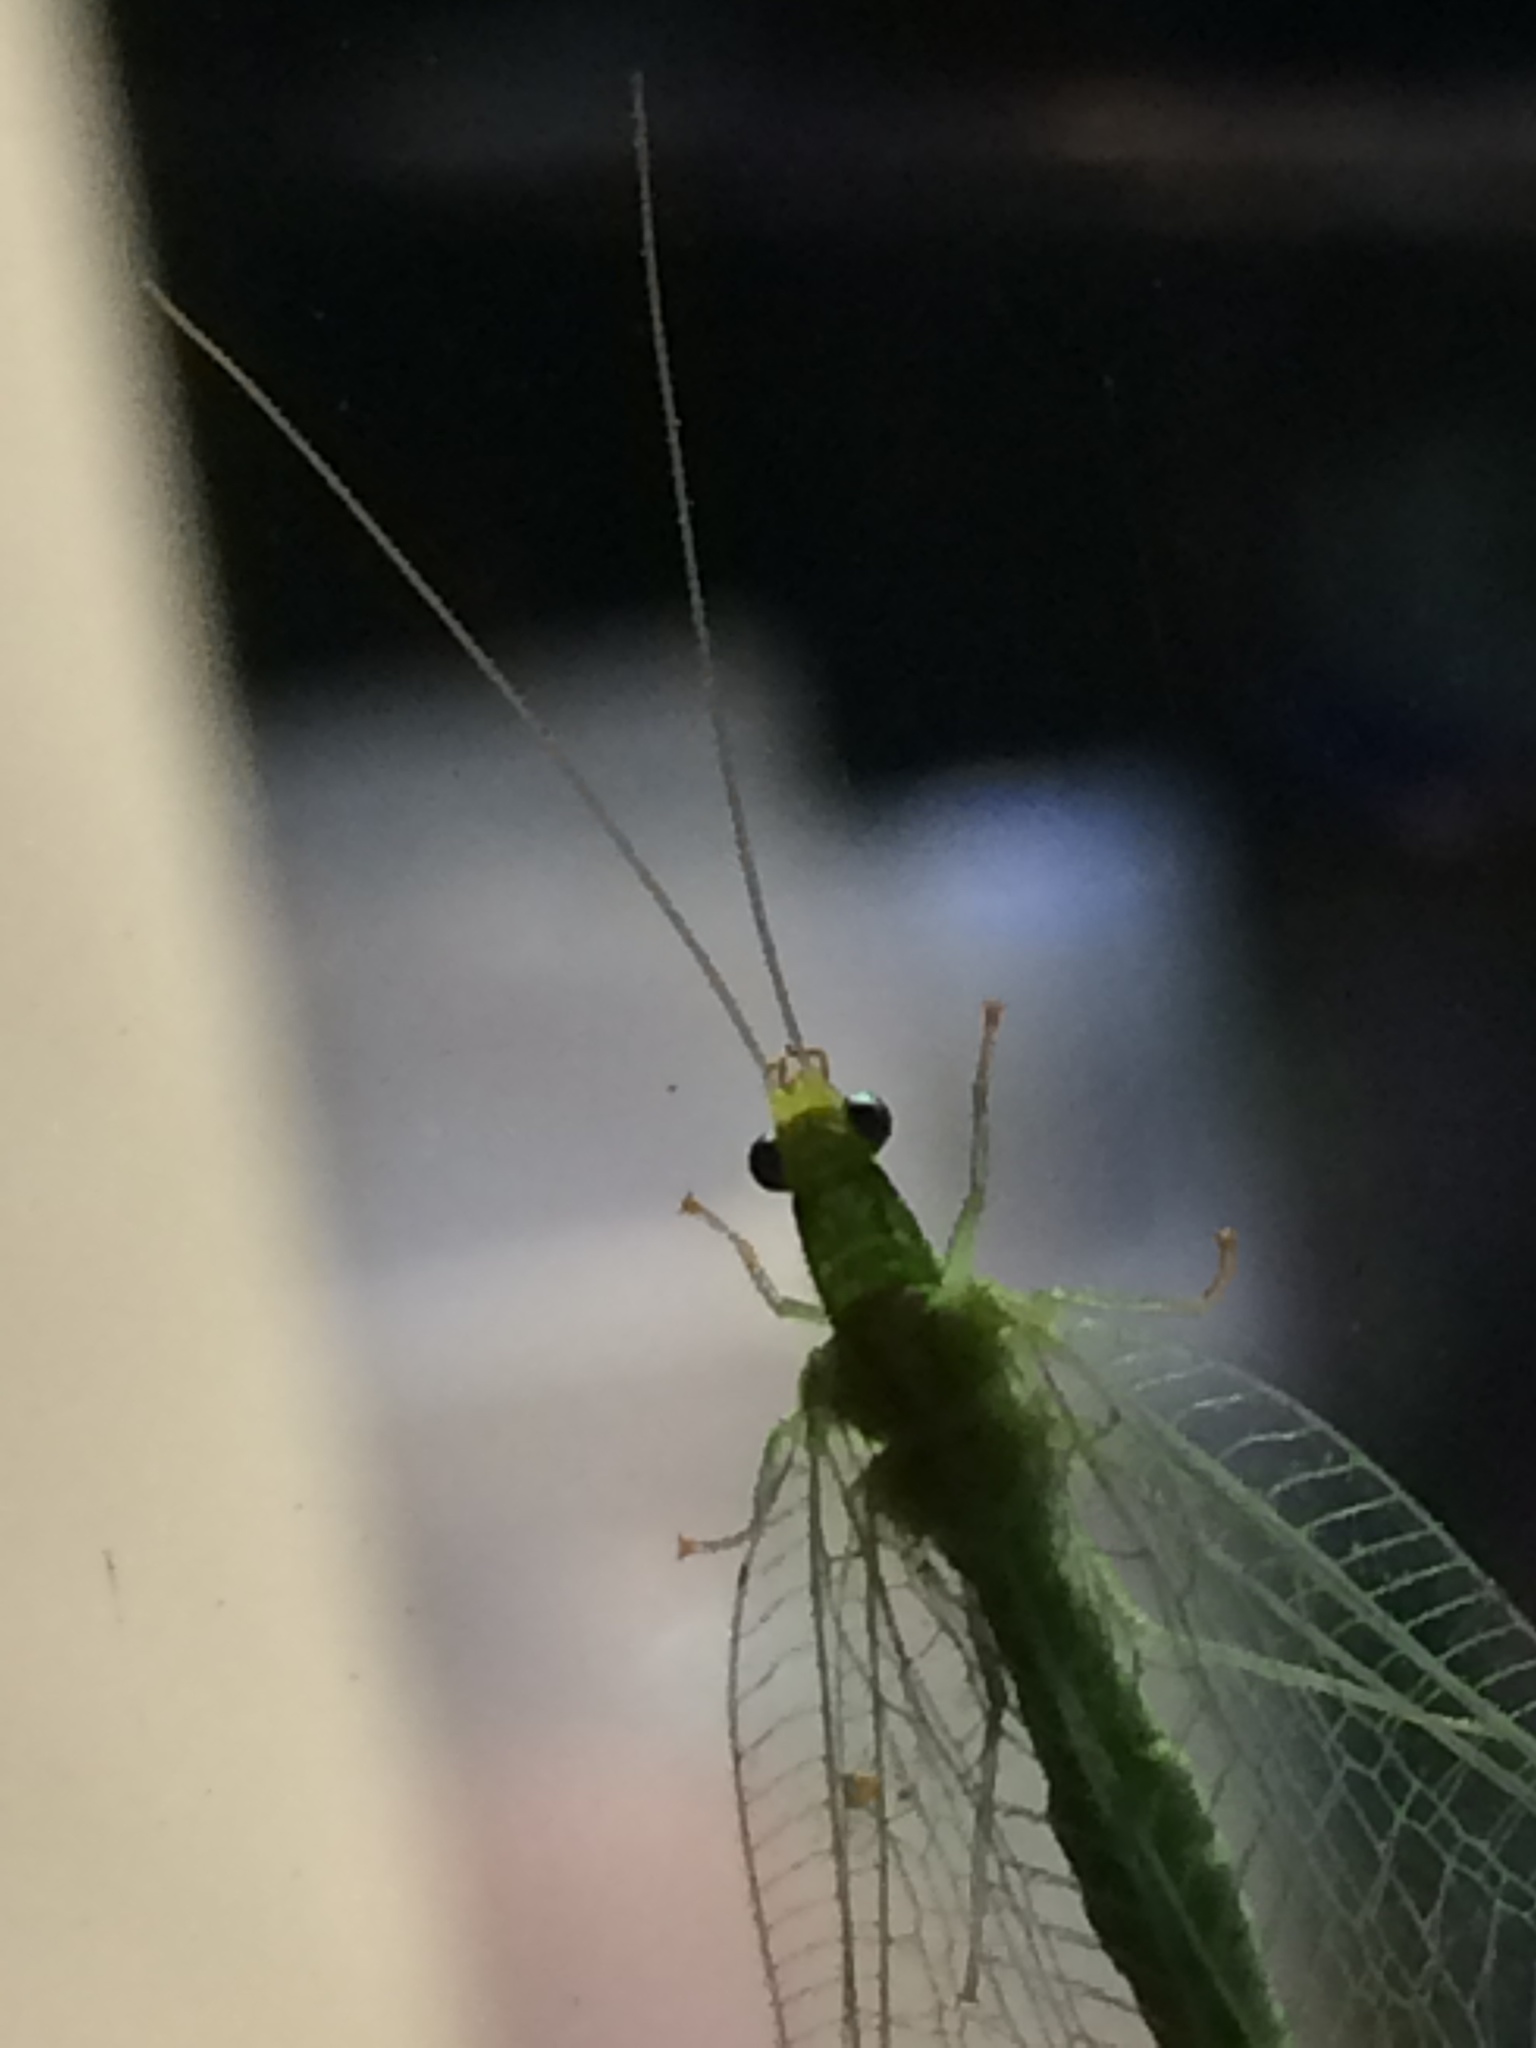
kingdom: Animalia
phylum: Arthropoda
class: Insecta
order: Neuroptera
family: Chrysopidae
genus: Chrysoperla
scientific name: Chrysoperla
